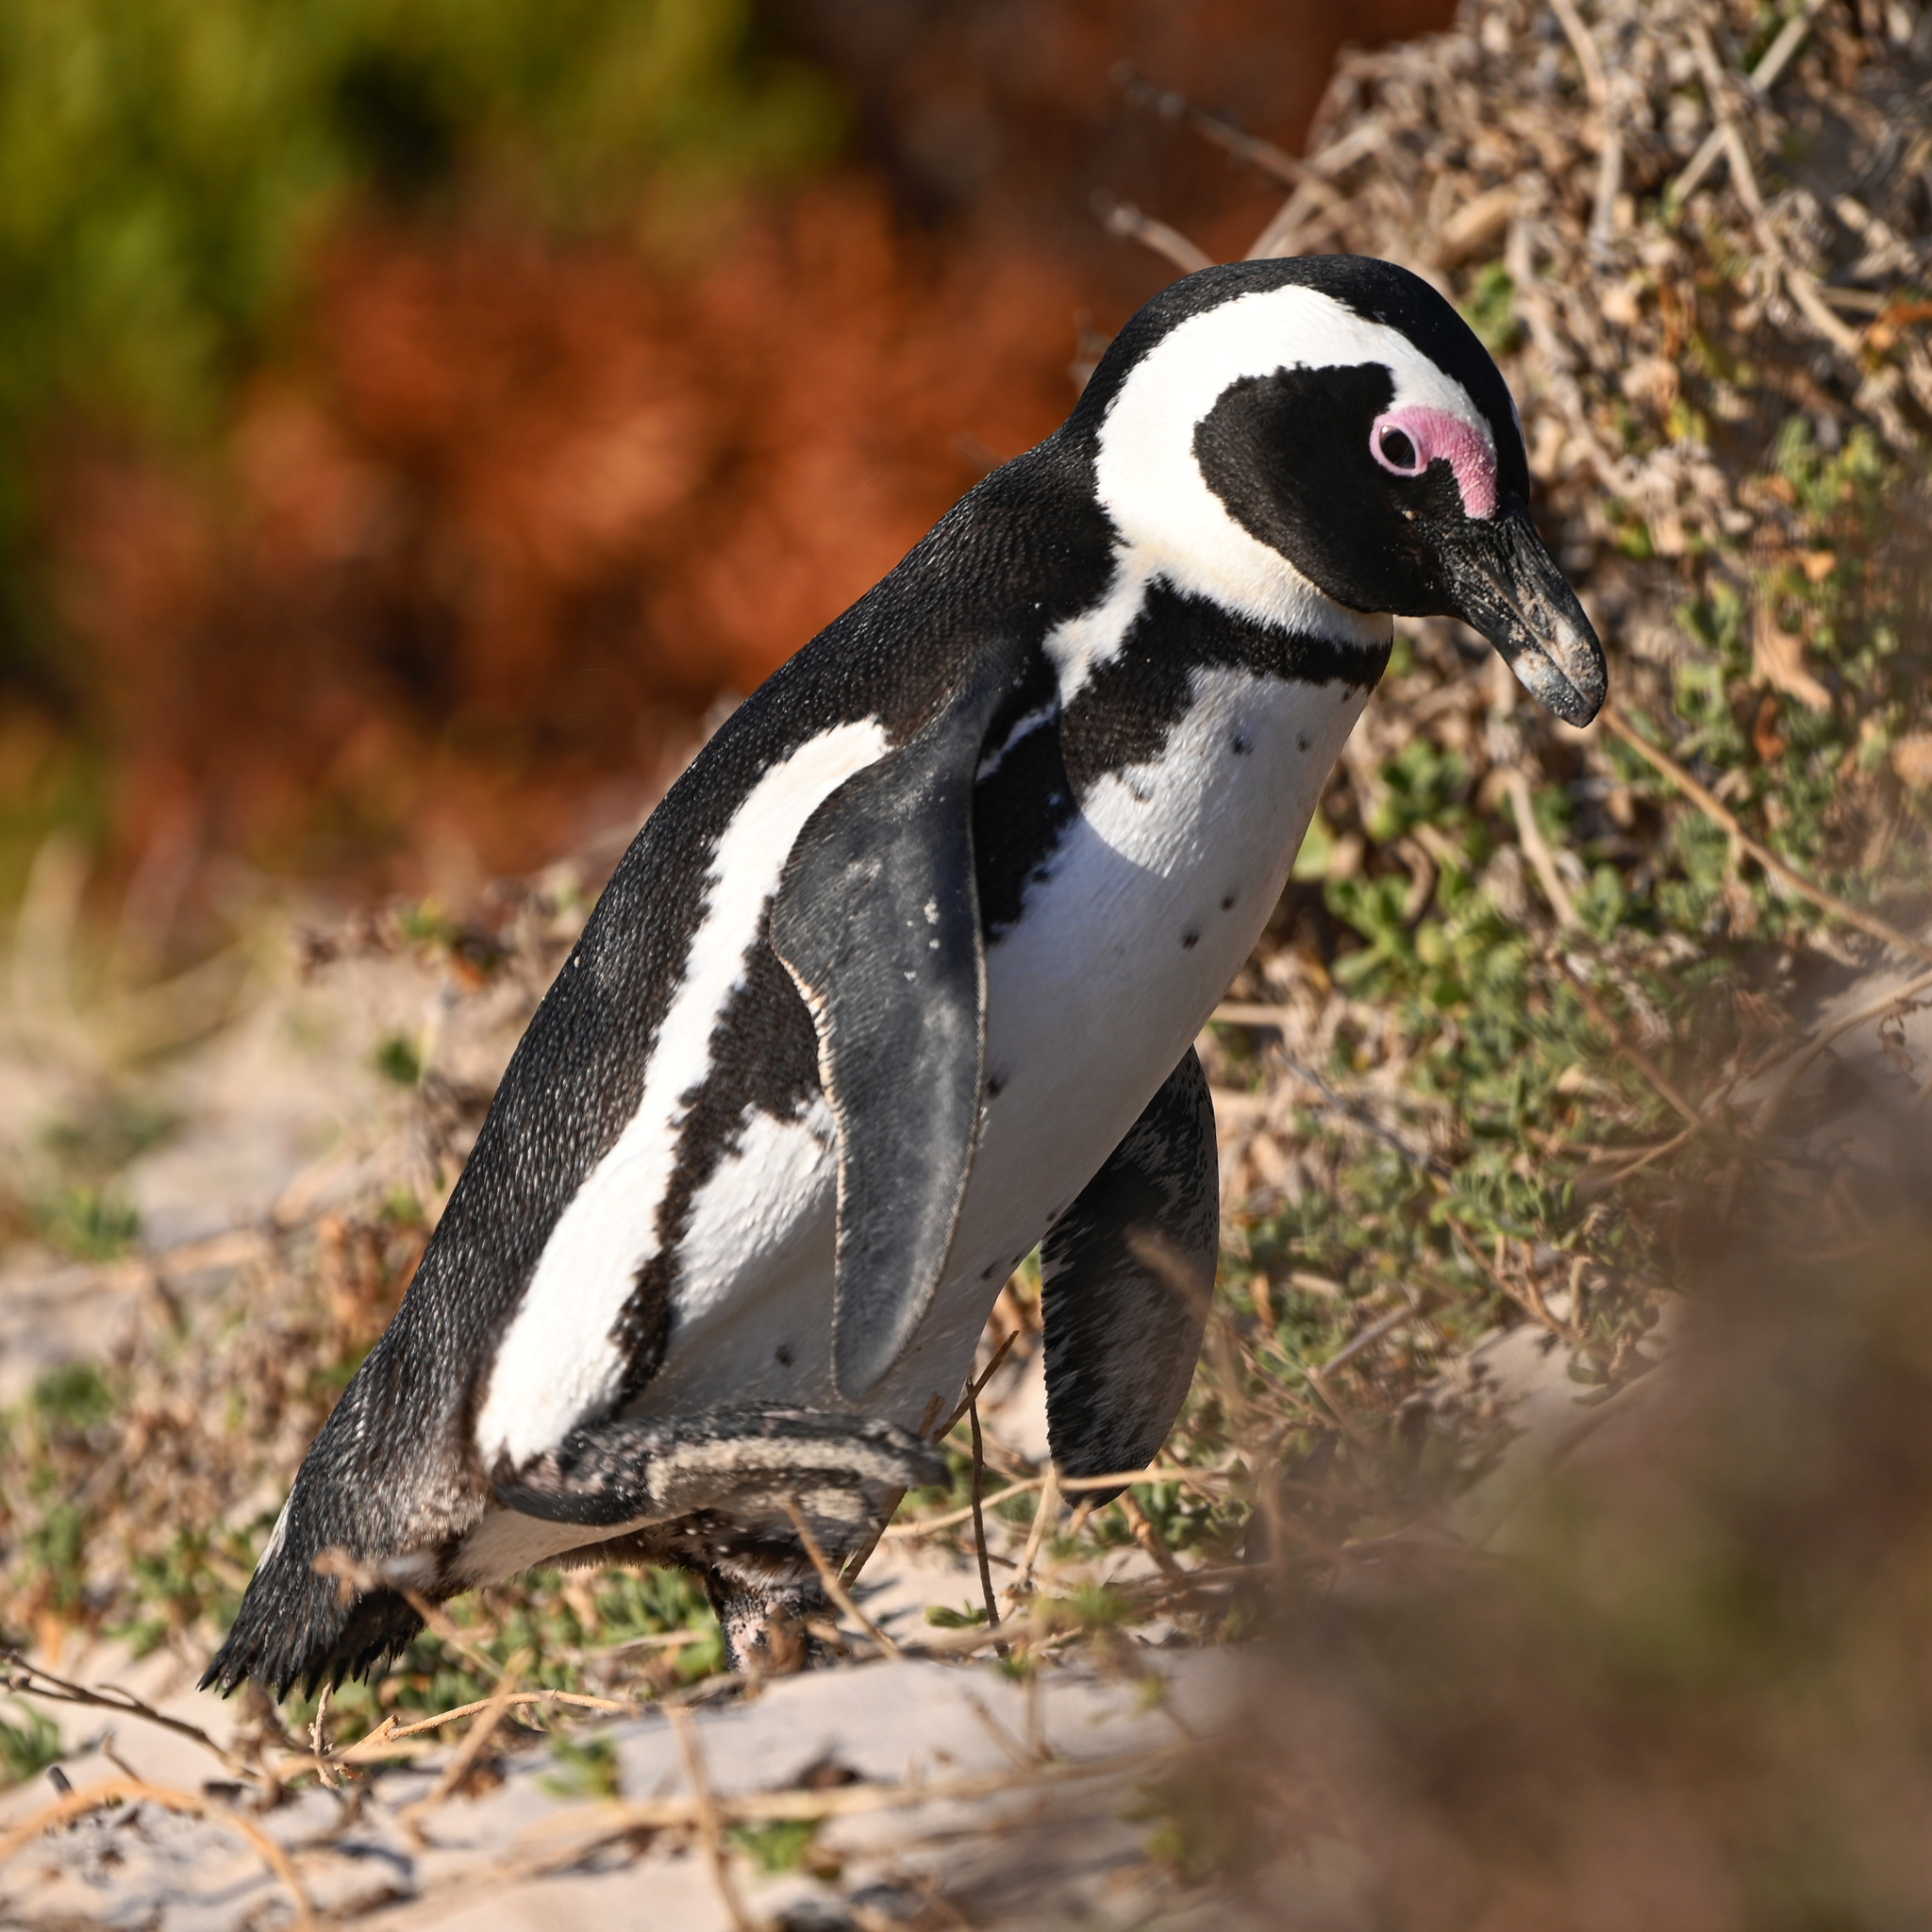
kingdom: Animalia
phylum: Chordata
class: Aves
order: Sphenisciformes
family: Spheniscidae
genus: Spheniscus
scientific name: Spheniscus demersus
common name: African penguin
